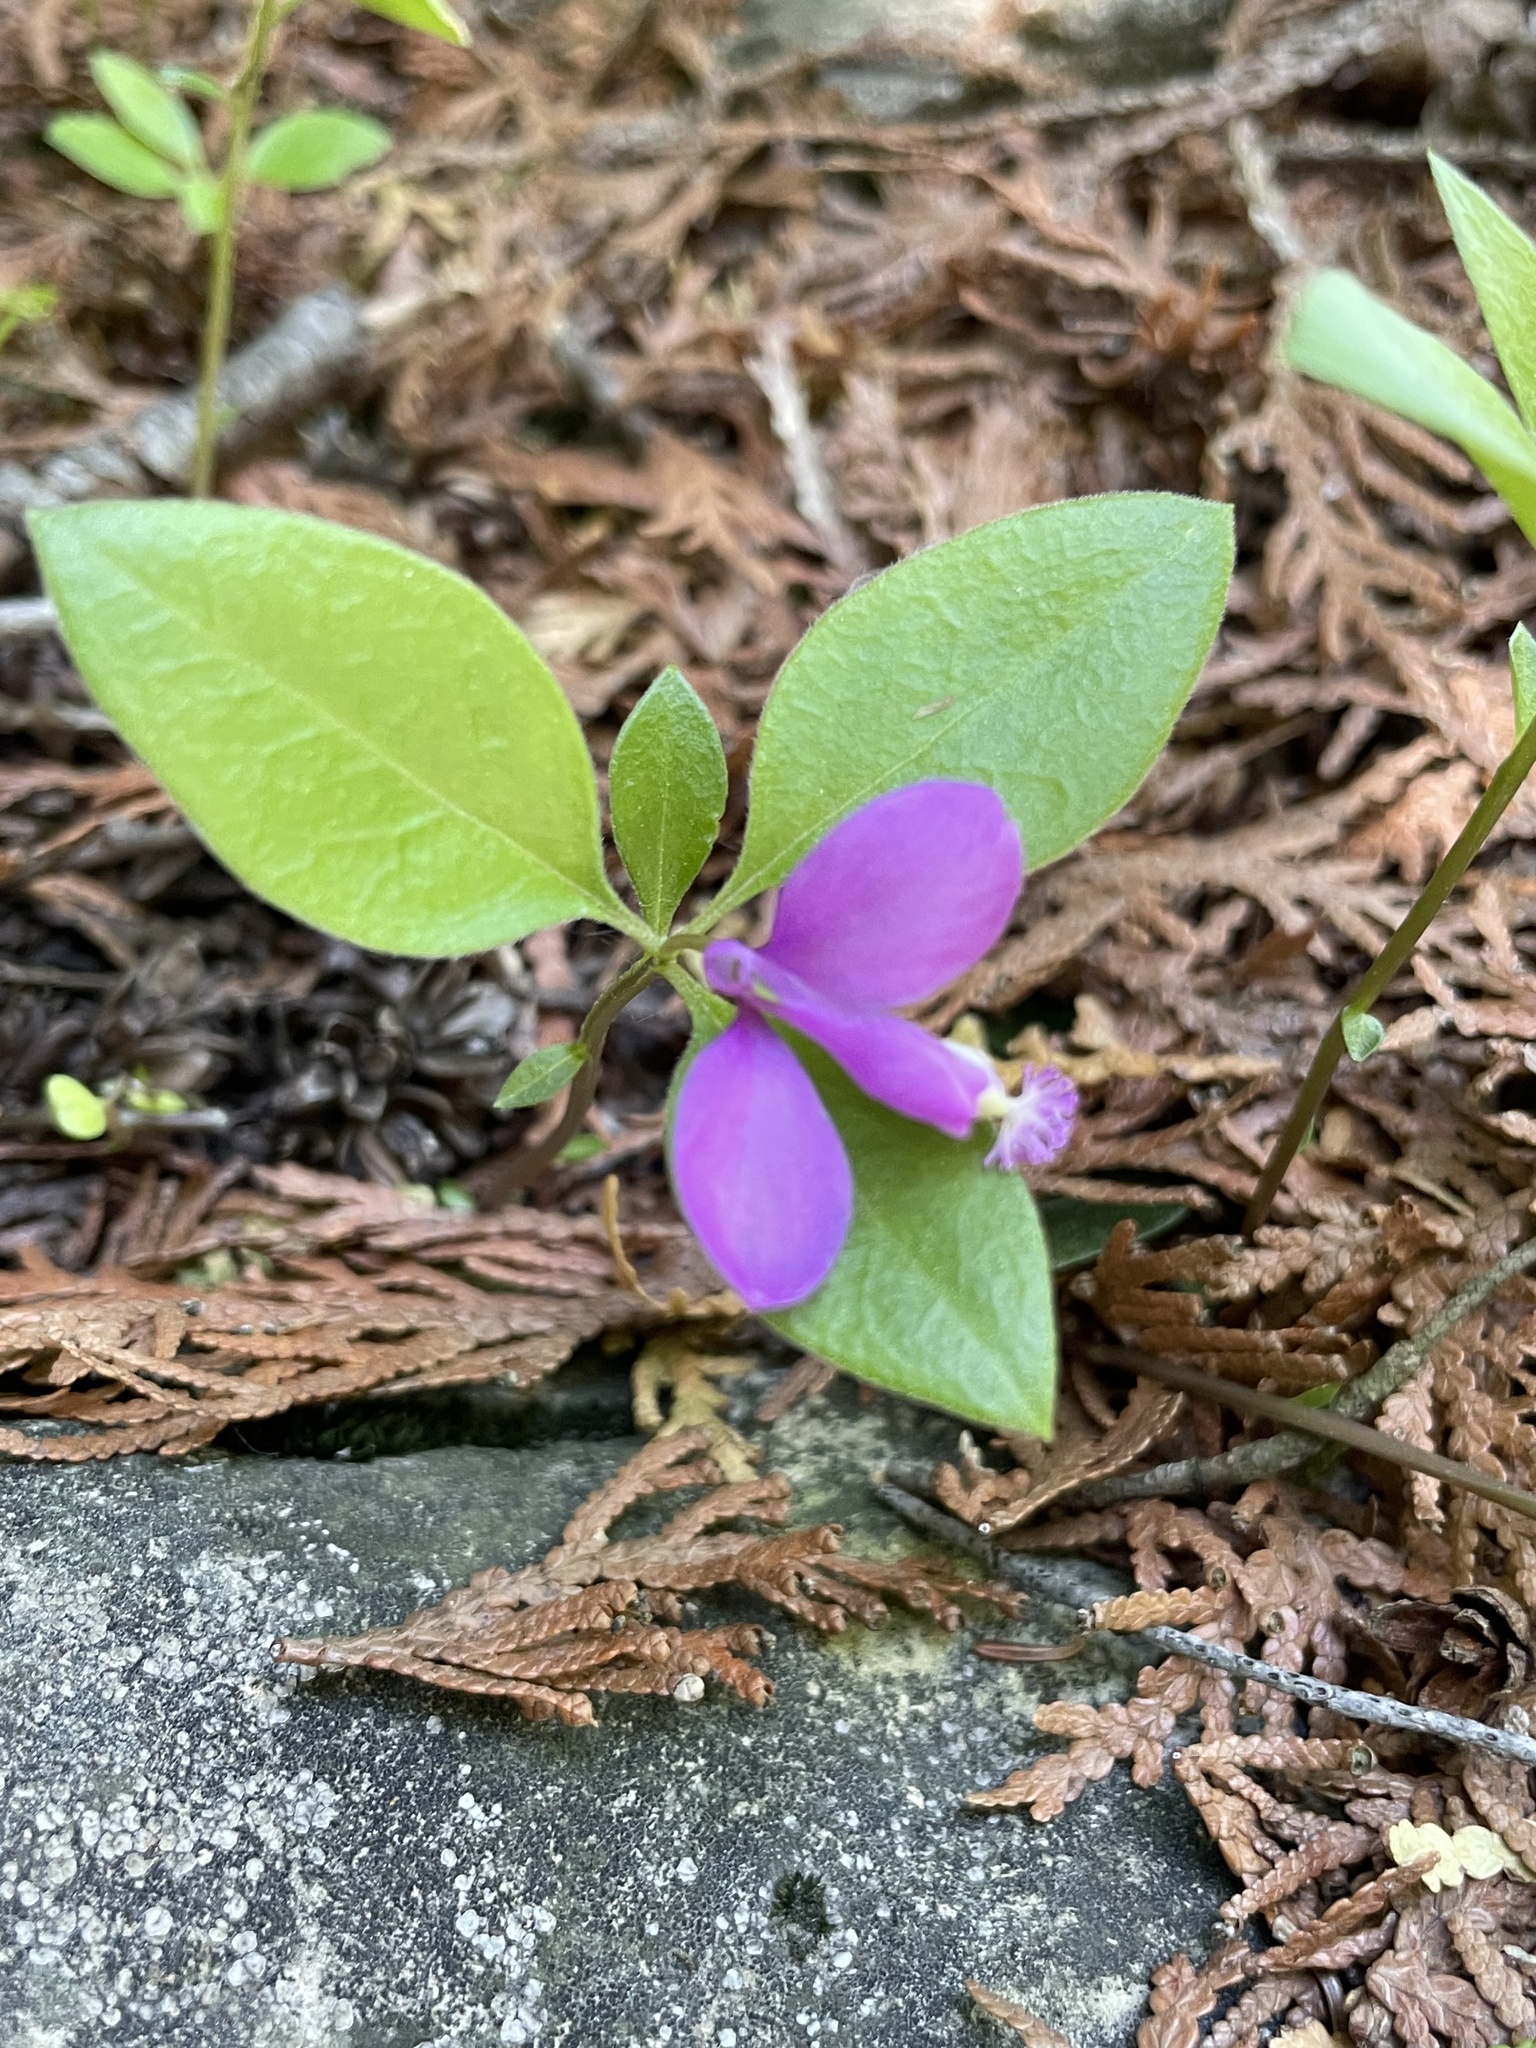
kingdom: Plantae
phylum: Tracheophyta
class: Magnoliopsida
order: Fabales
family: Polygalaceae
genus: Polygaloides
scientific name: Polygaloides paucifolia
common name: Bird-on-the-wing
